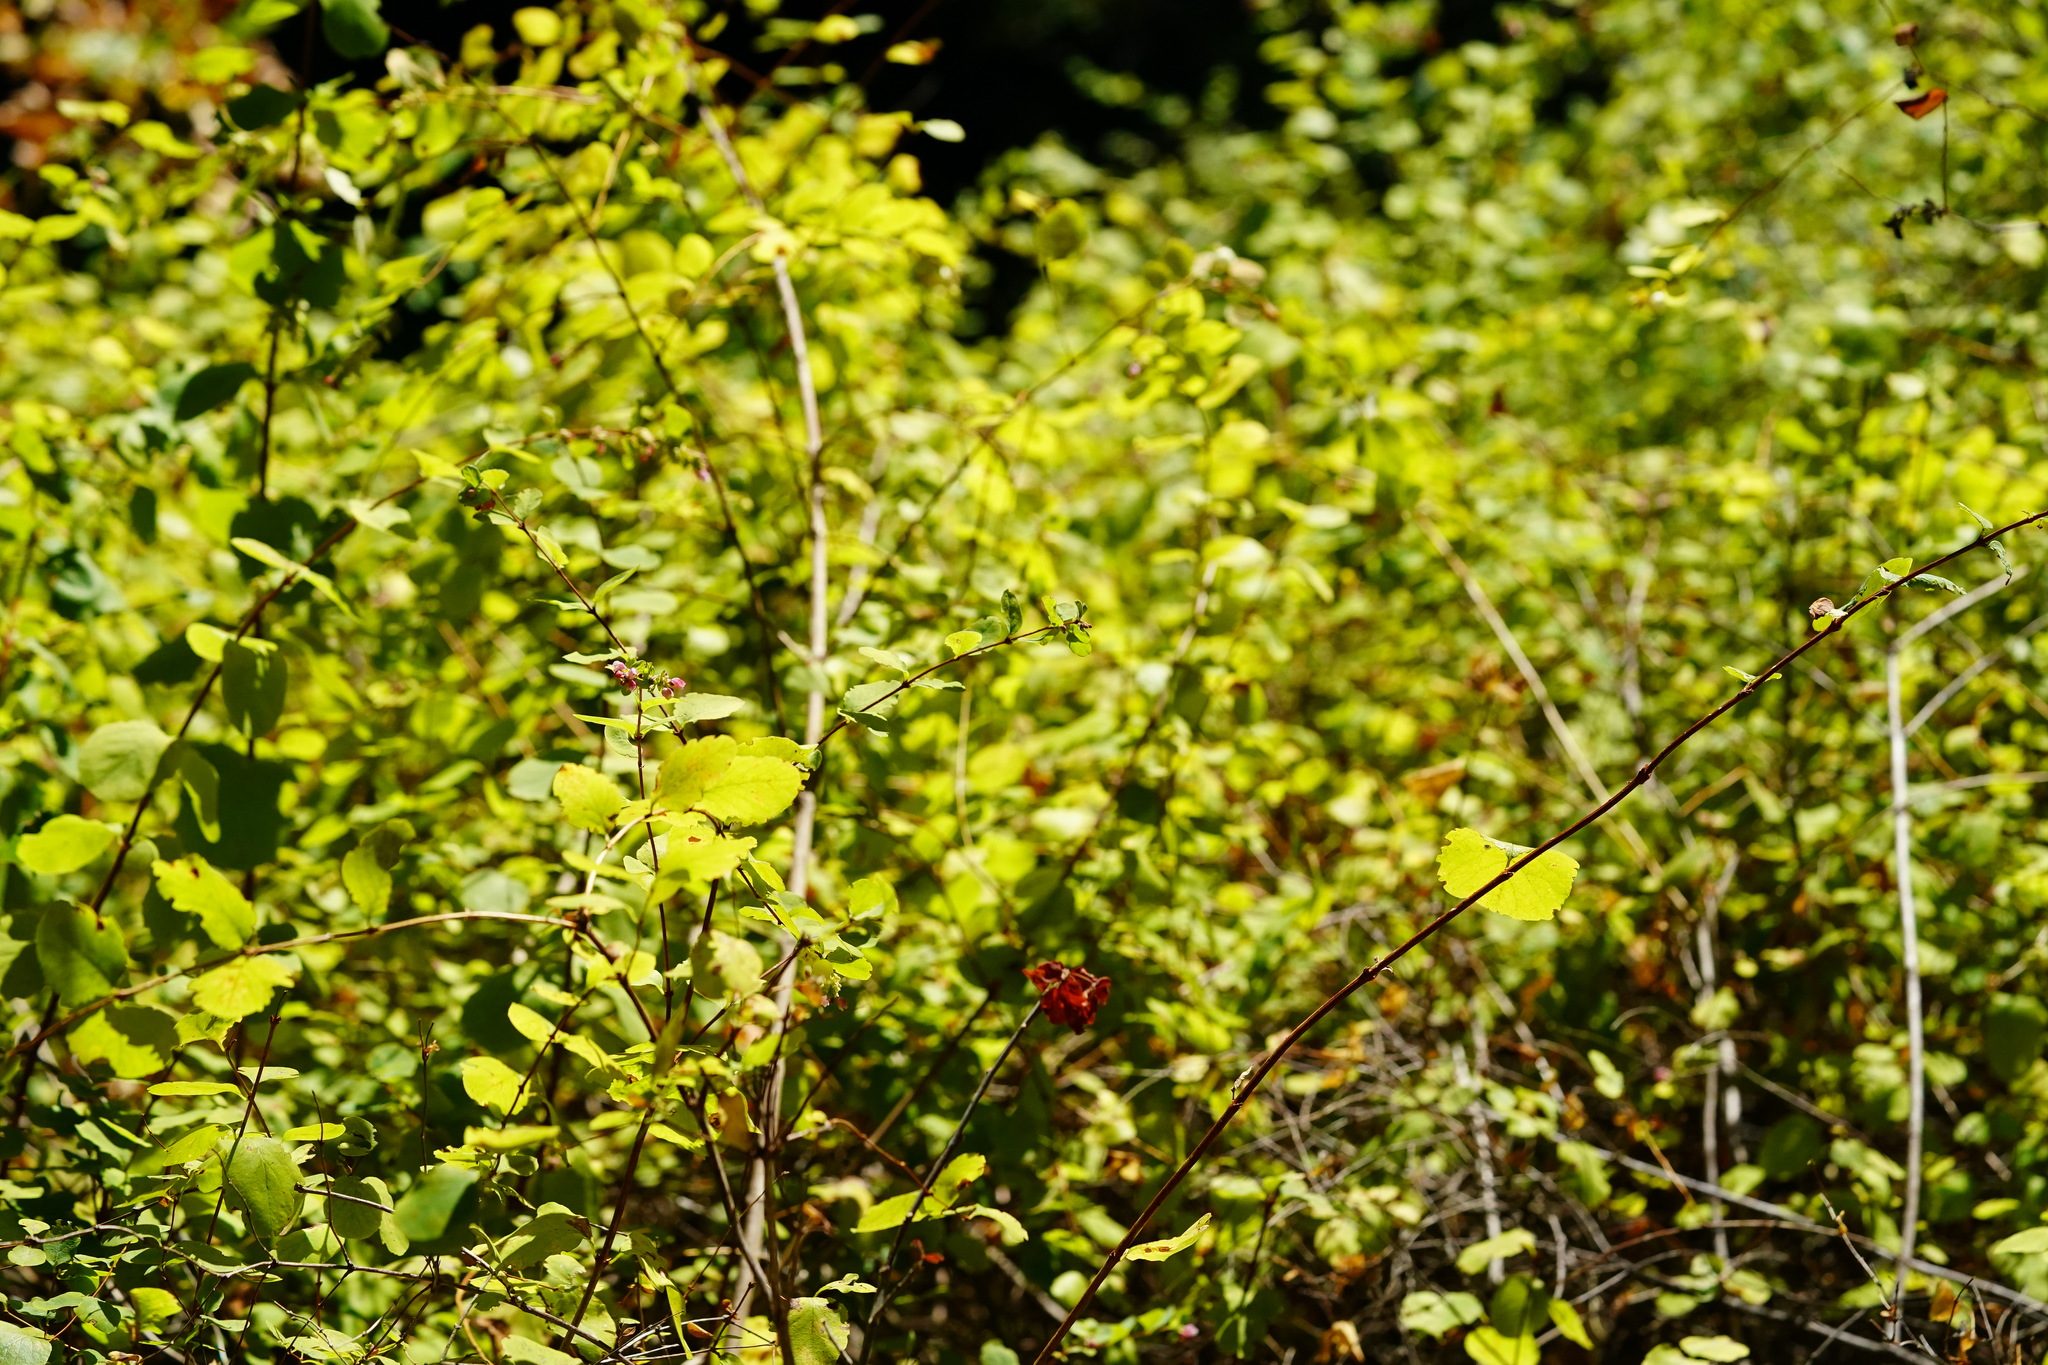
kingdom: Plantae
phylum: Tracheophyta
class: Magnoliopsida
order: Dipsacales
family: Caprifoliaceae
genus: Symphoricarpos
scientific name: Symphoricarpos albus
